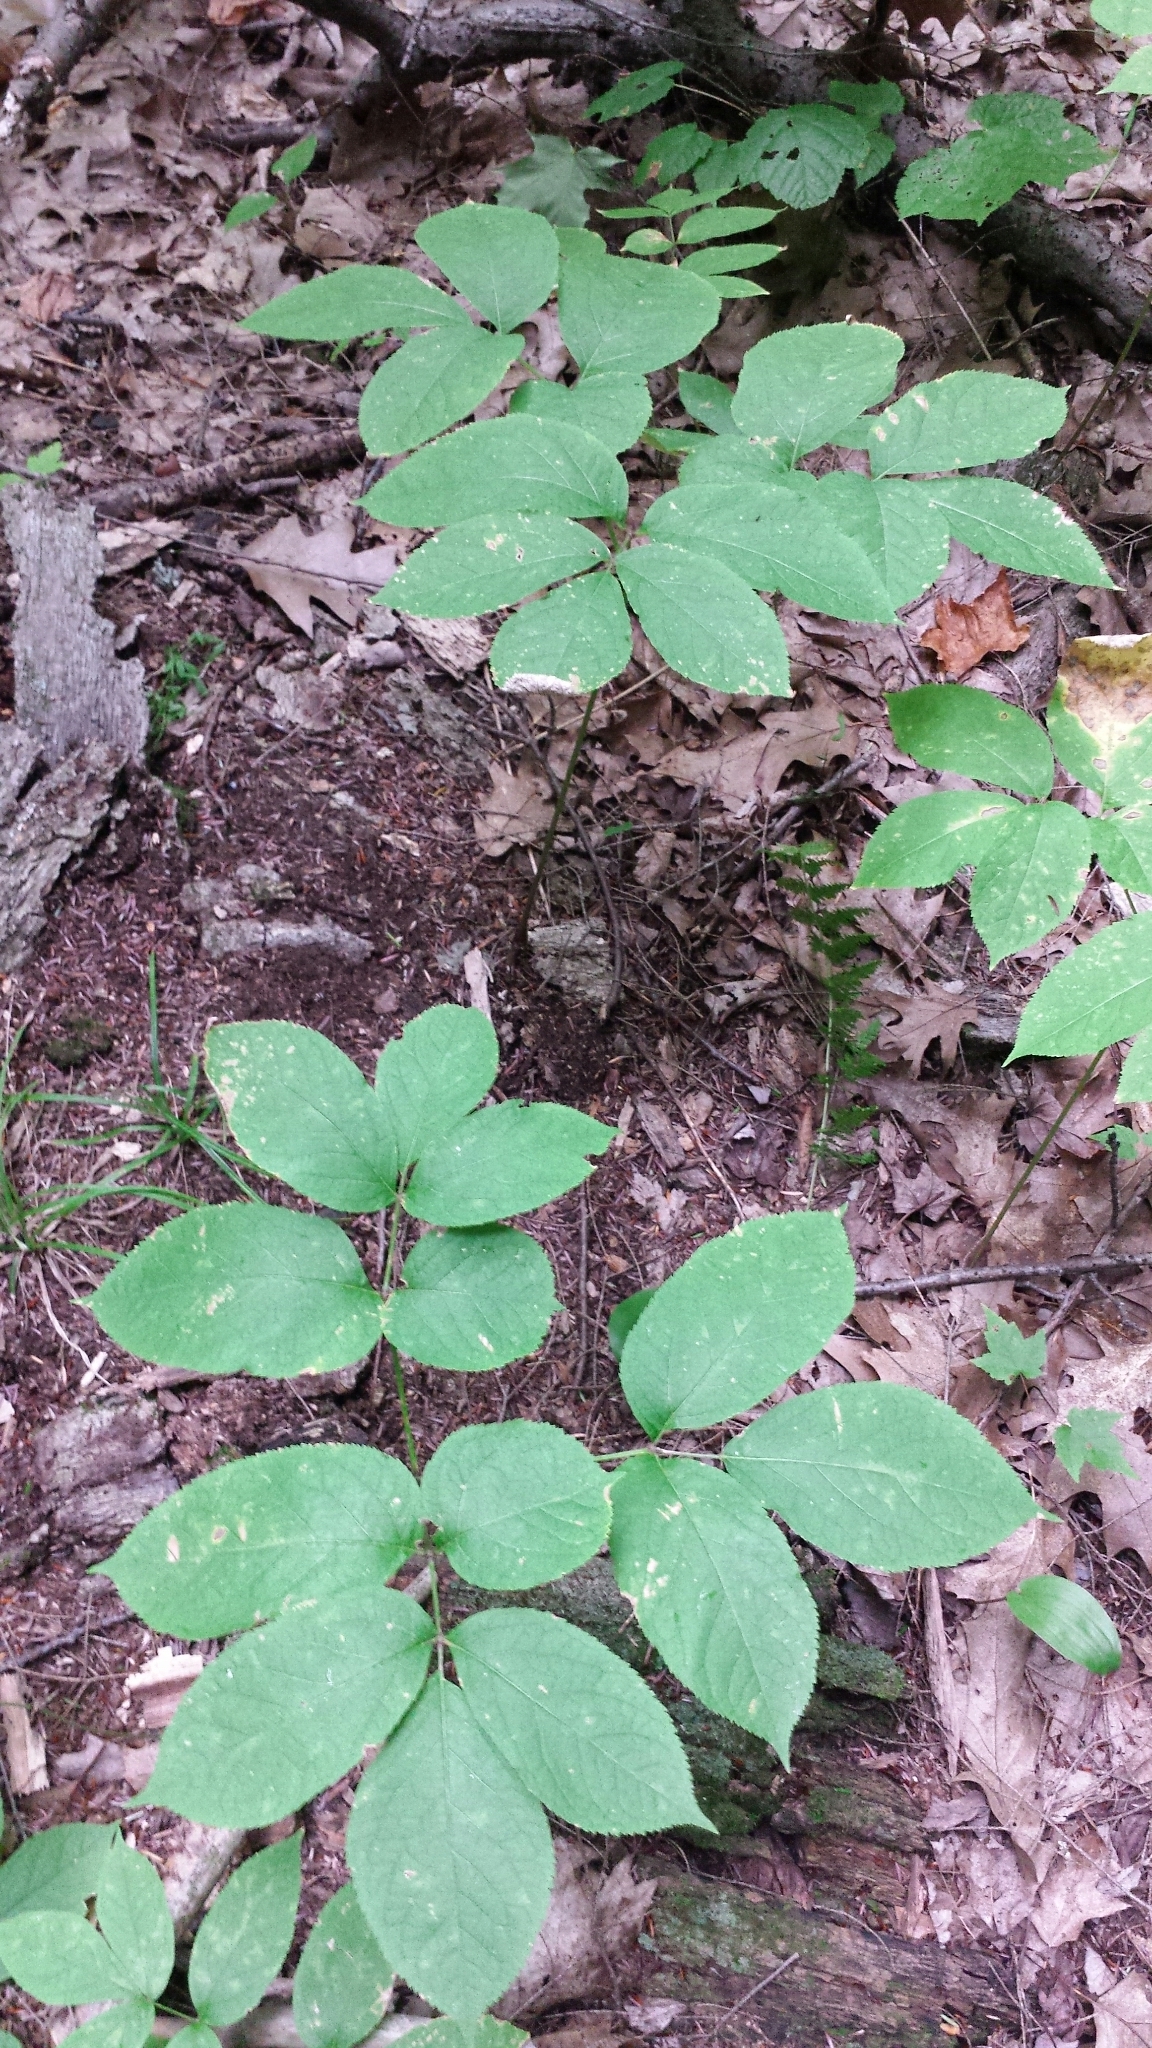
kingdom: Plantae
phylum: Tracheophyta
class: Magnoliopsida
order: Apiales
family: Araliaceae
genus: Aralia
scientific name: Aralia nudicaulis
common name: Wild sarsaparilla
